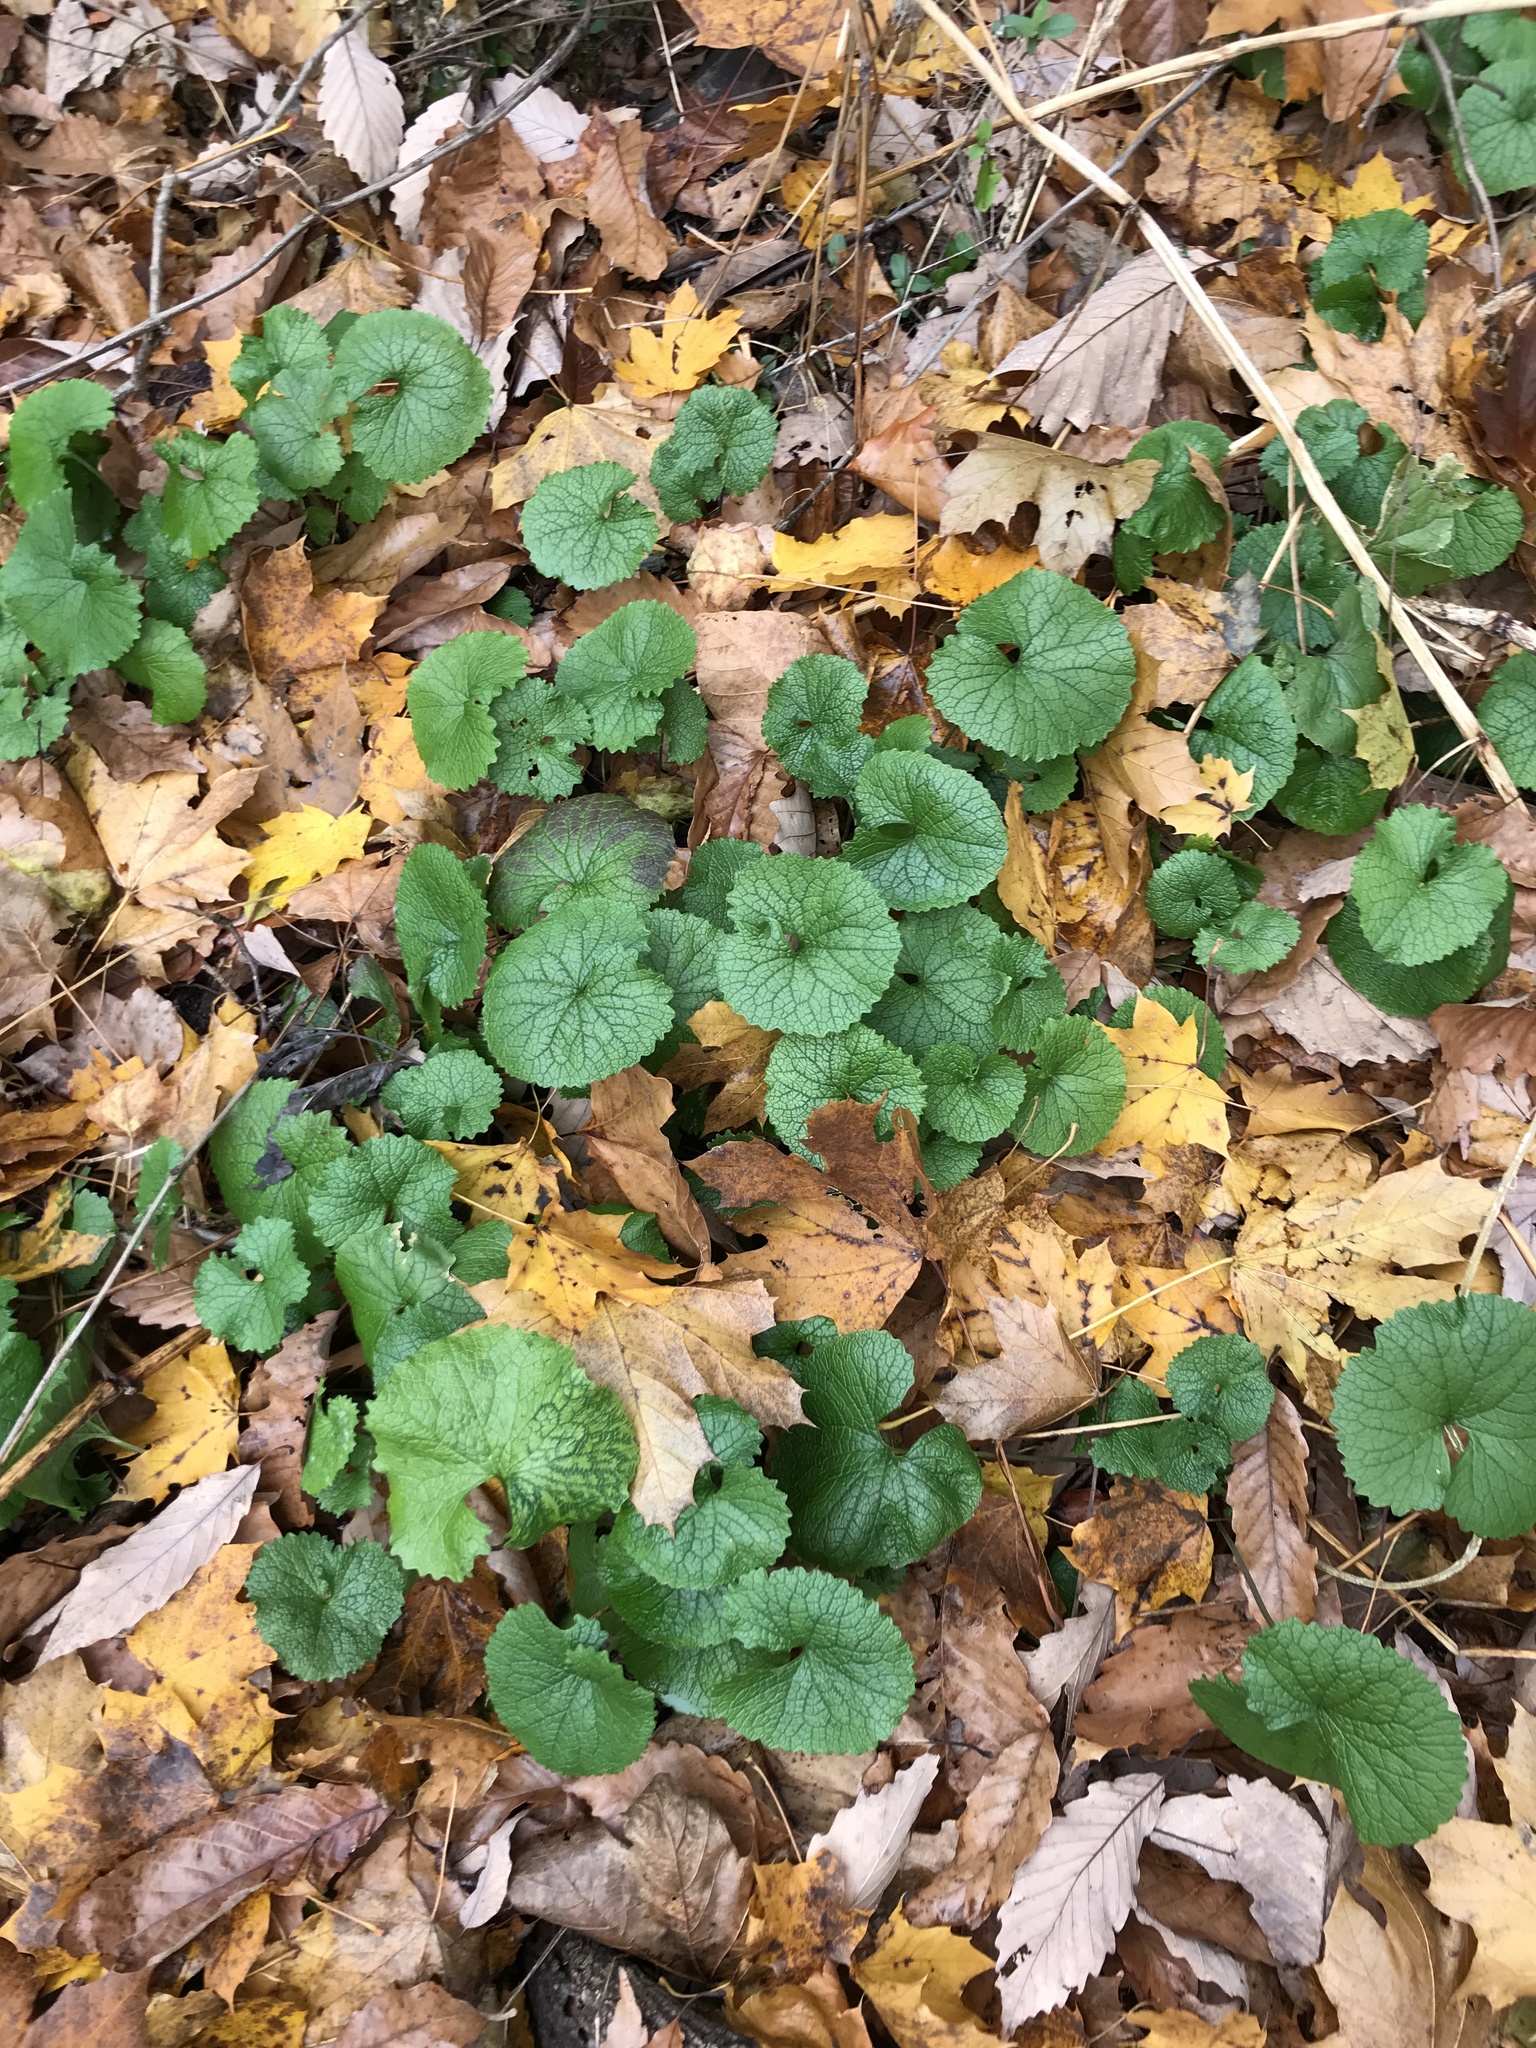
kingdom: Plantae
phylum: Tracheophyta
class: Magnoliopsida
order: Brassicales
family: Brassicaceae
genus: Alliaria
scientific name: Alliaria petiolata
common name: Garlic mustard
